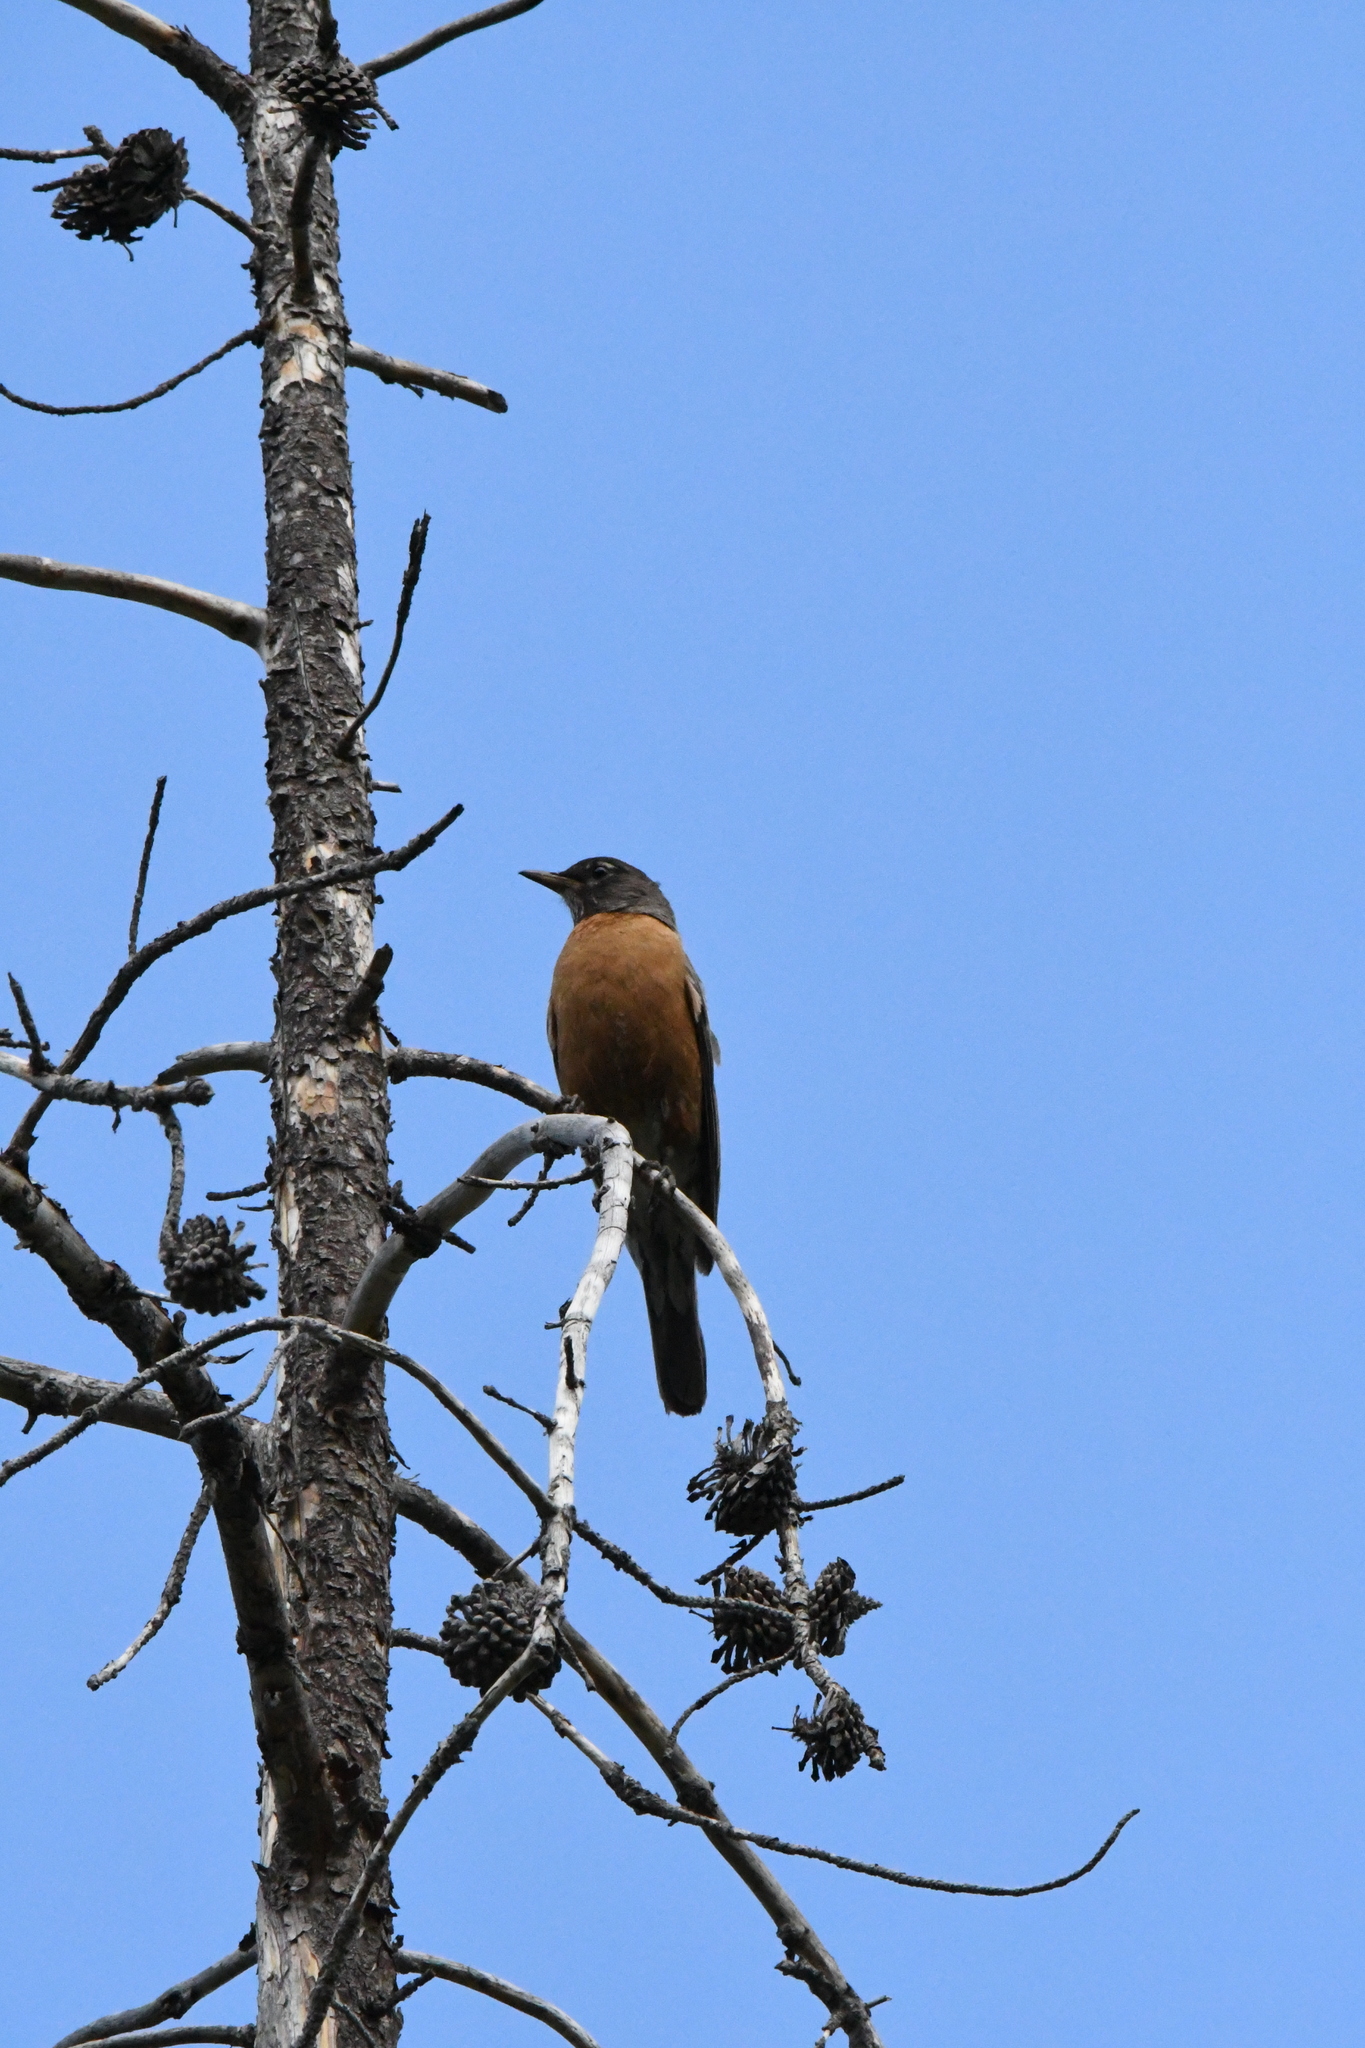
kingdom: Animalia
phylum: Chordata
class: Aves
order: Passeriformes
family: Turdidae
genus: Turdus
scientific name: Turdus migratorius
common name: American robin
